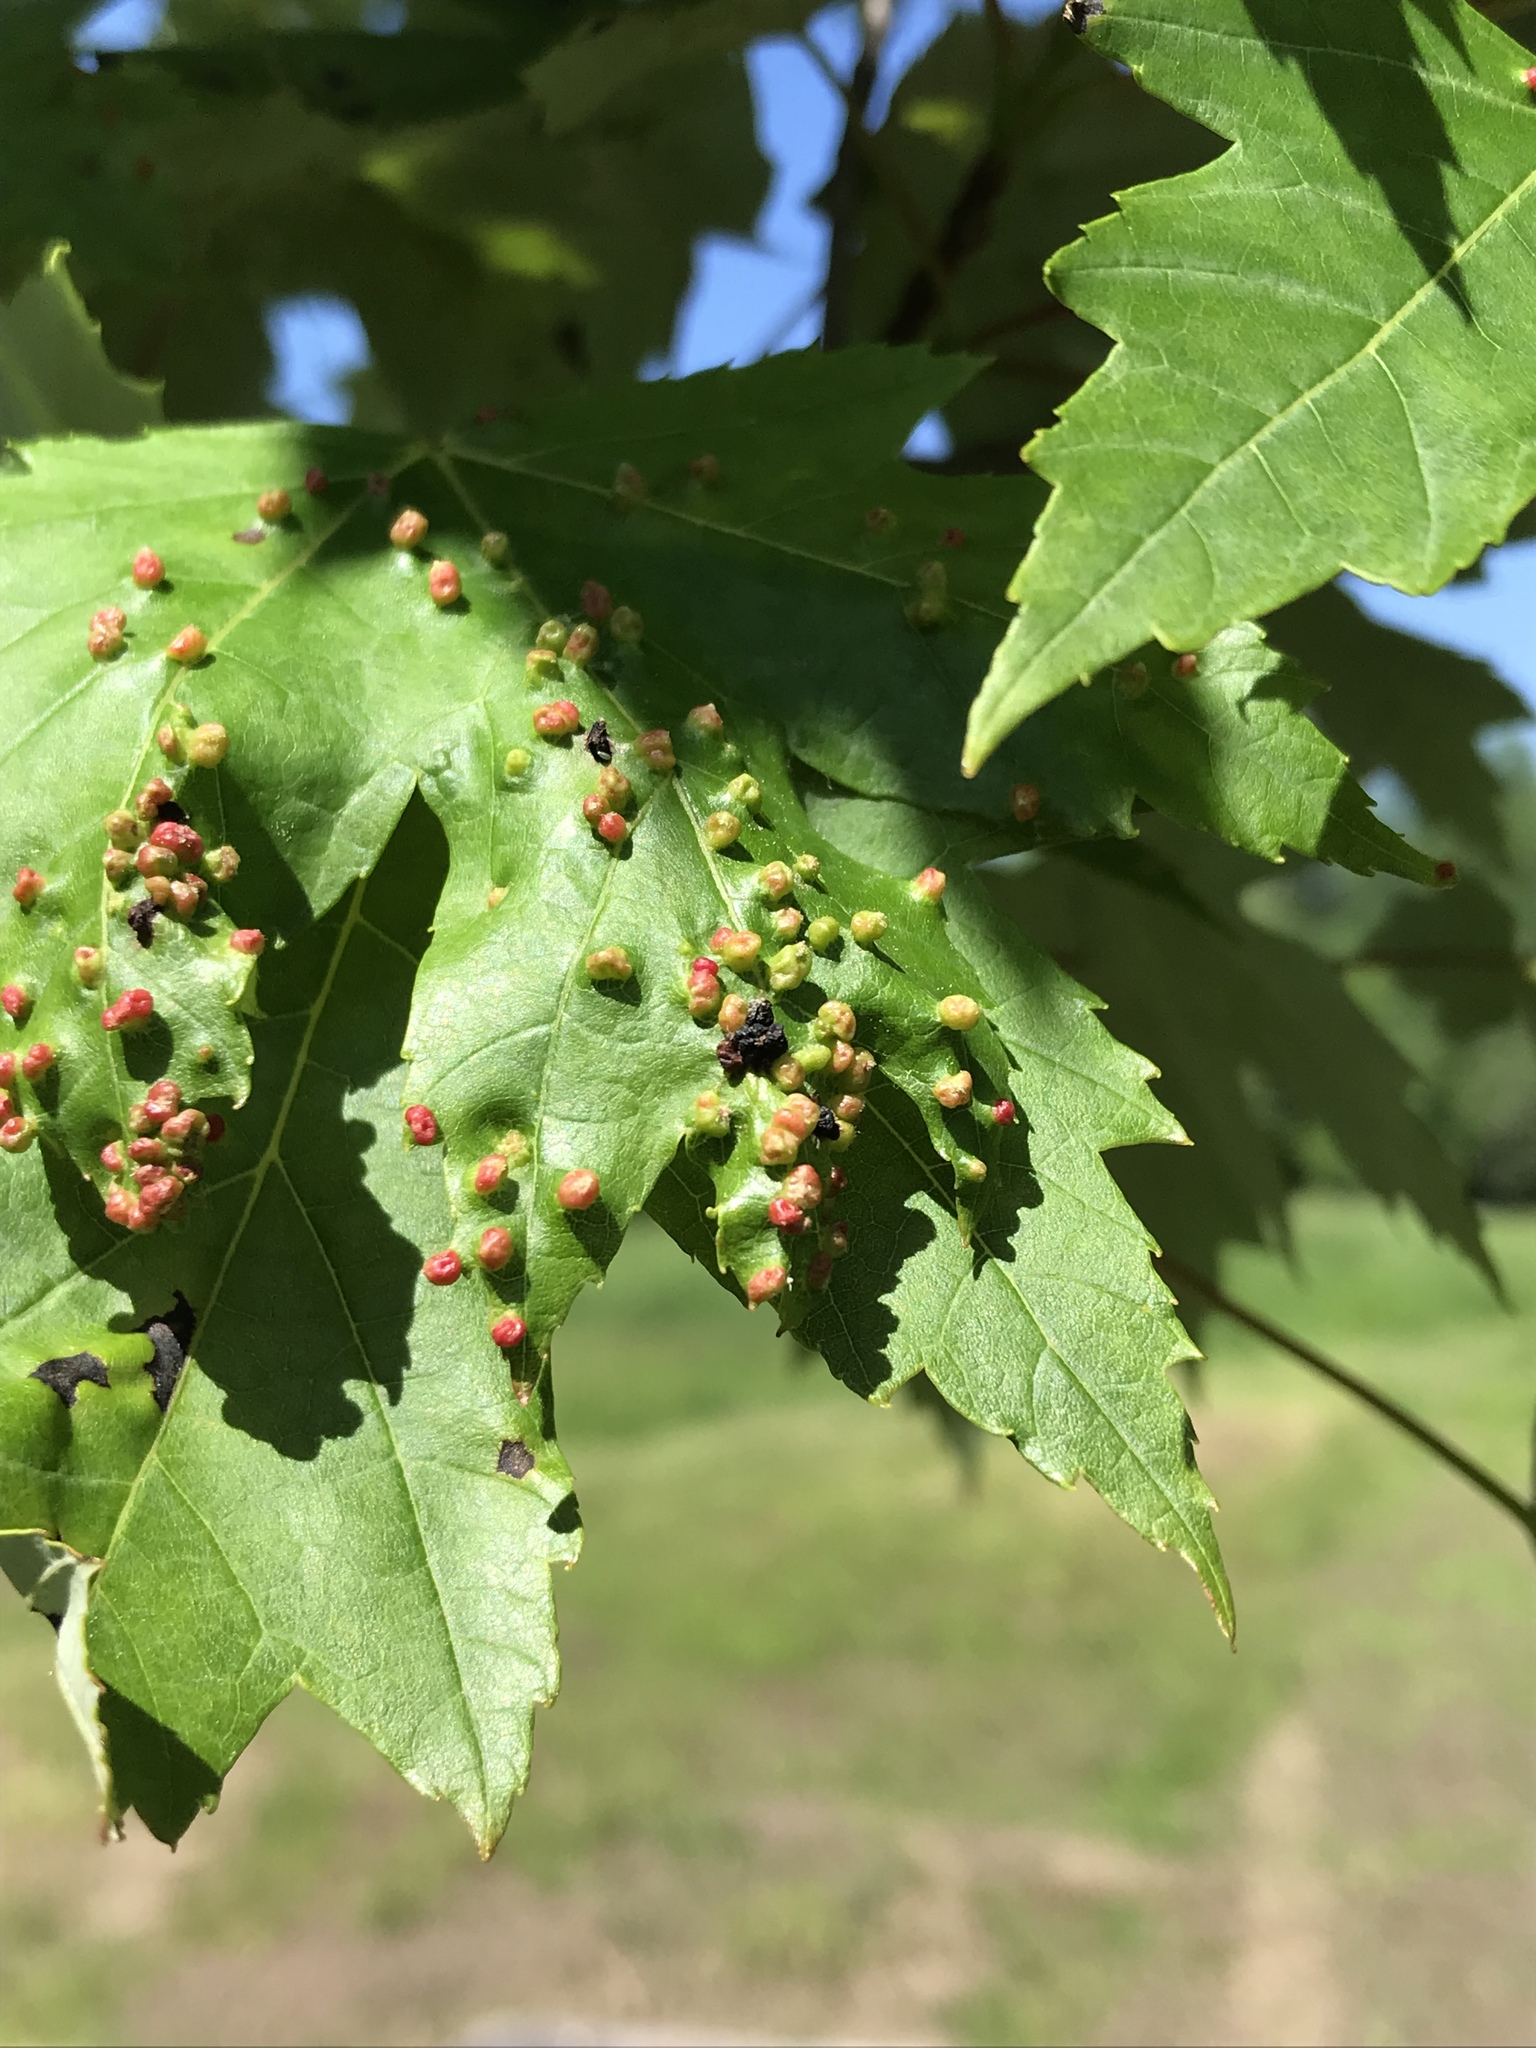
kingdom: Animalia
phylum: Arthropoda
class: Arachnida
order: Trombidiformes
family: Eriophyidae
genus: Vasates
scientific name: Vasates quadripedes
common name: Maple bladder gall mite
